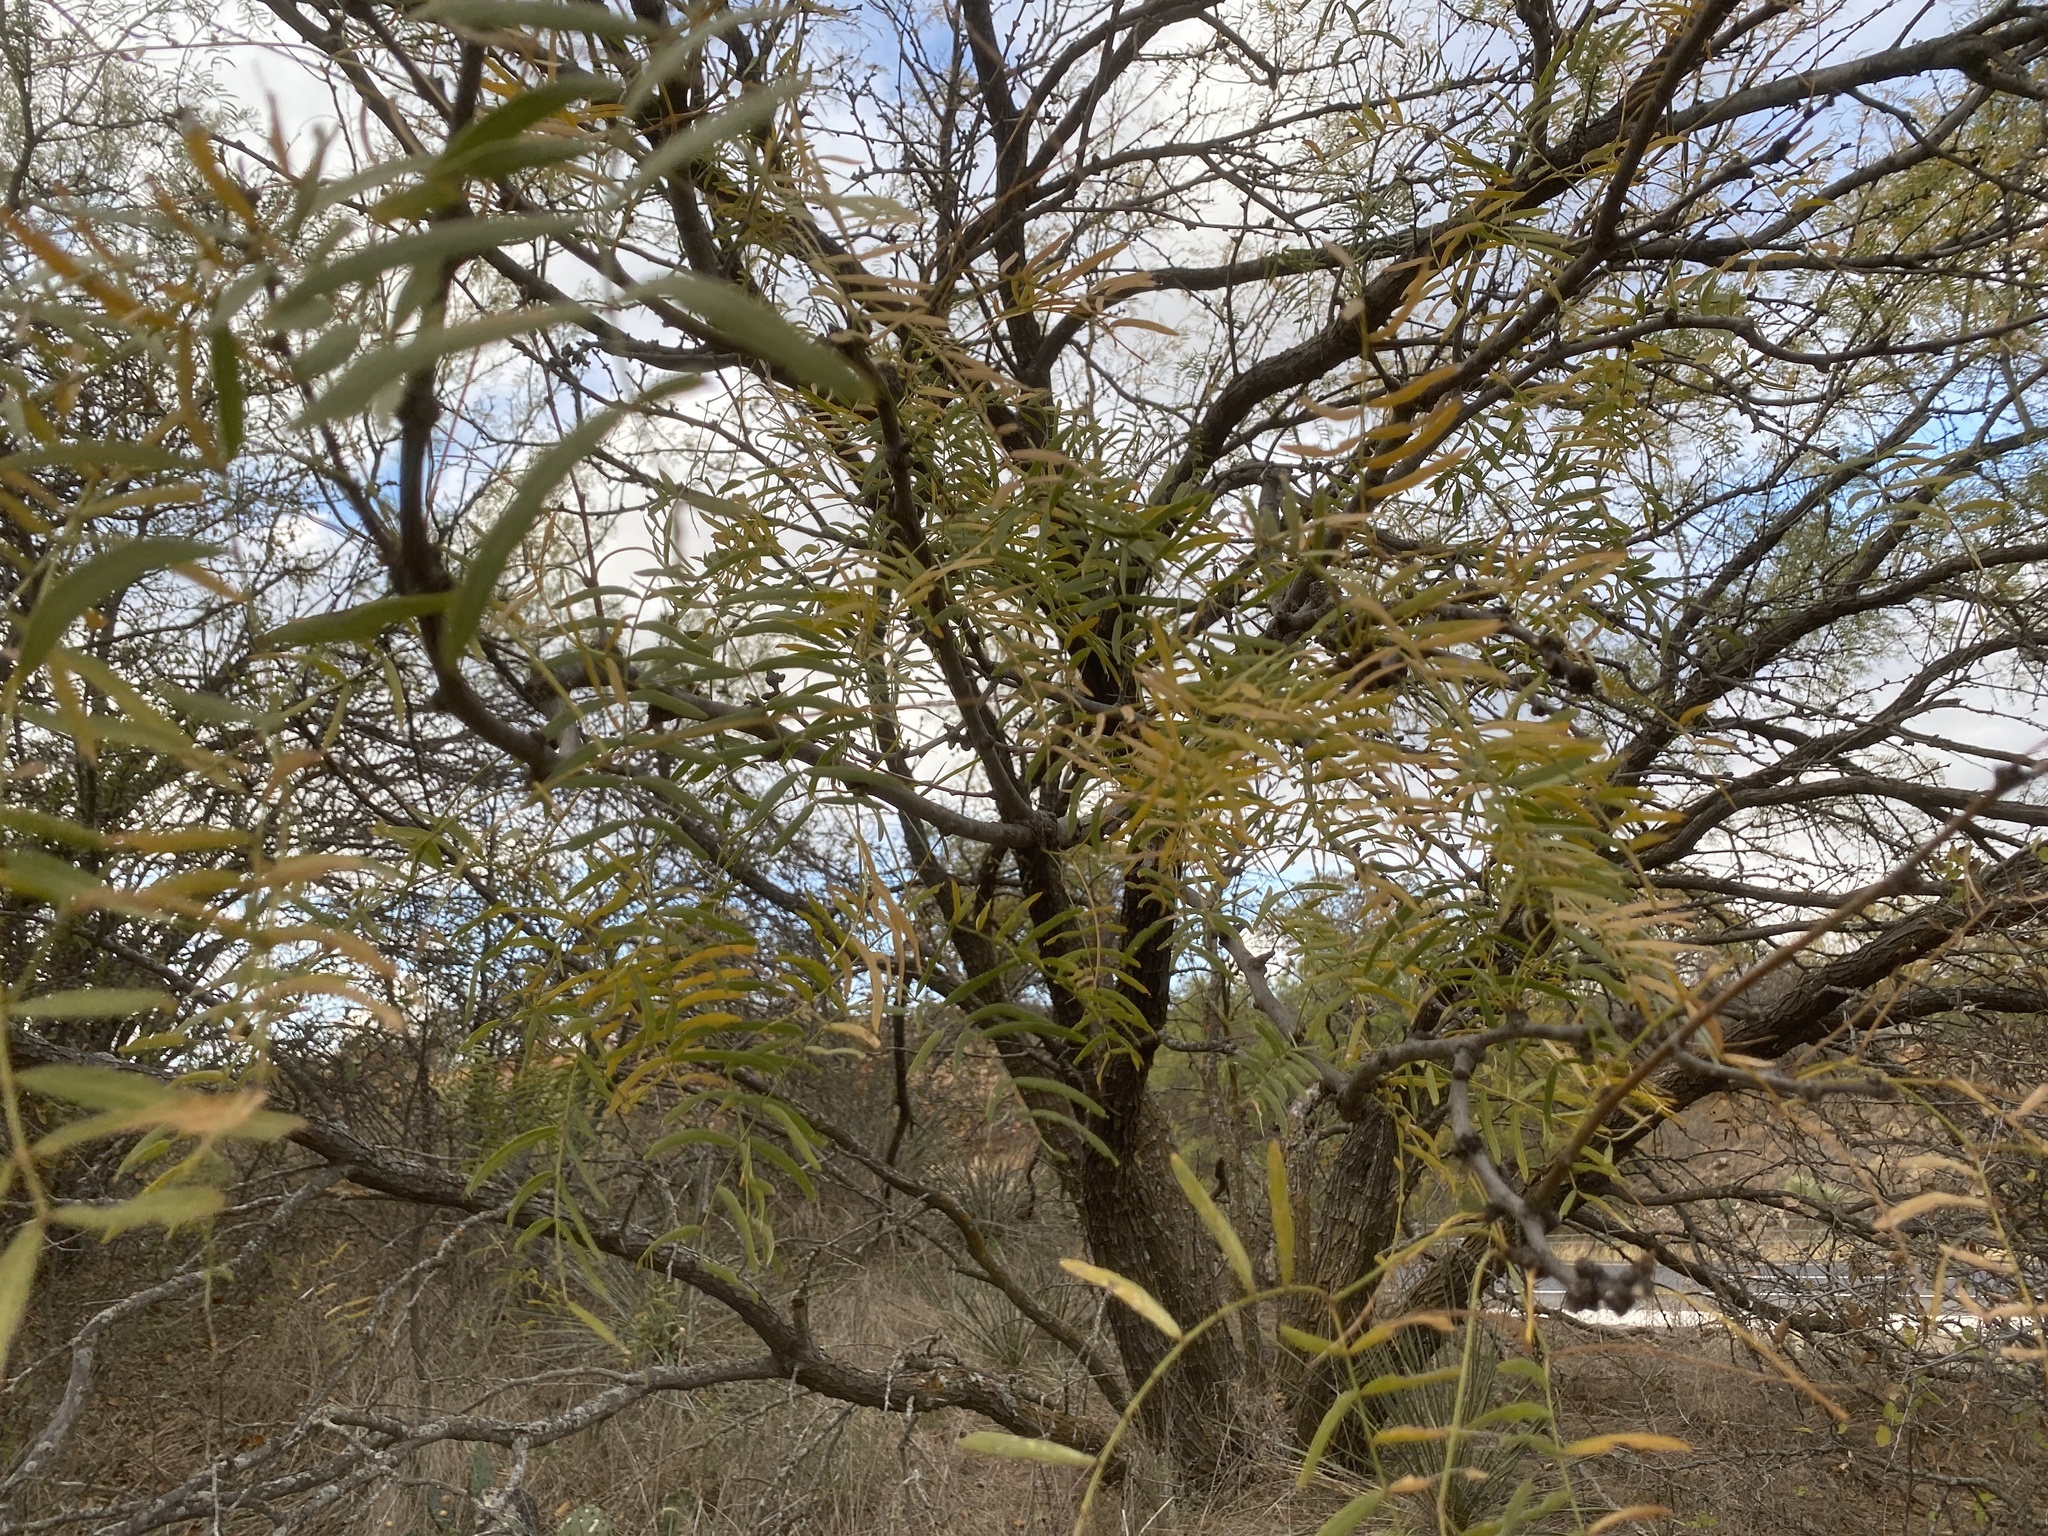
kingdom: Plantae
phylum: Tracheophyta
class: Magnoliopsida
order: Fabales
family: Fabaceae
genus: Prosopis
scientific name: Prosopis glandulosa
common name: Honey mesquite
